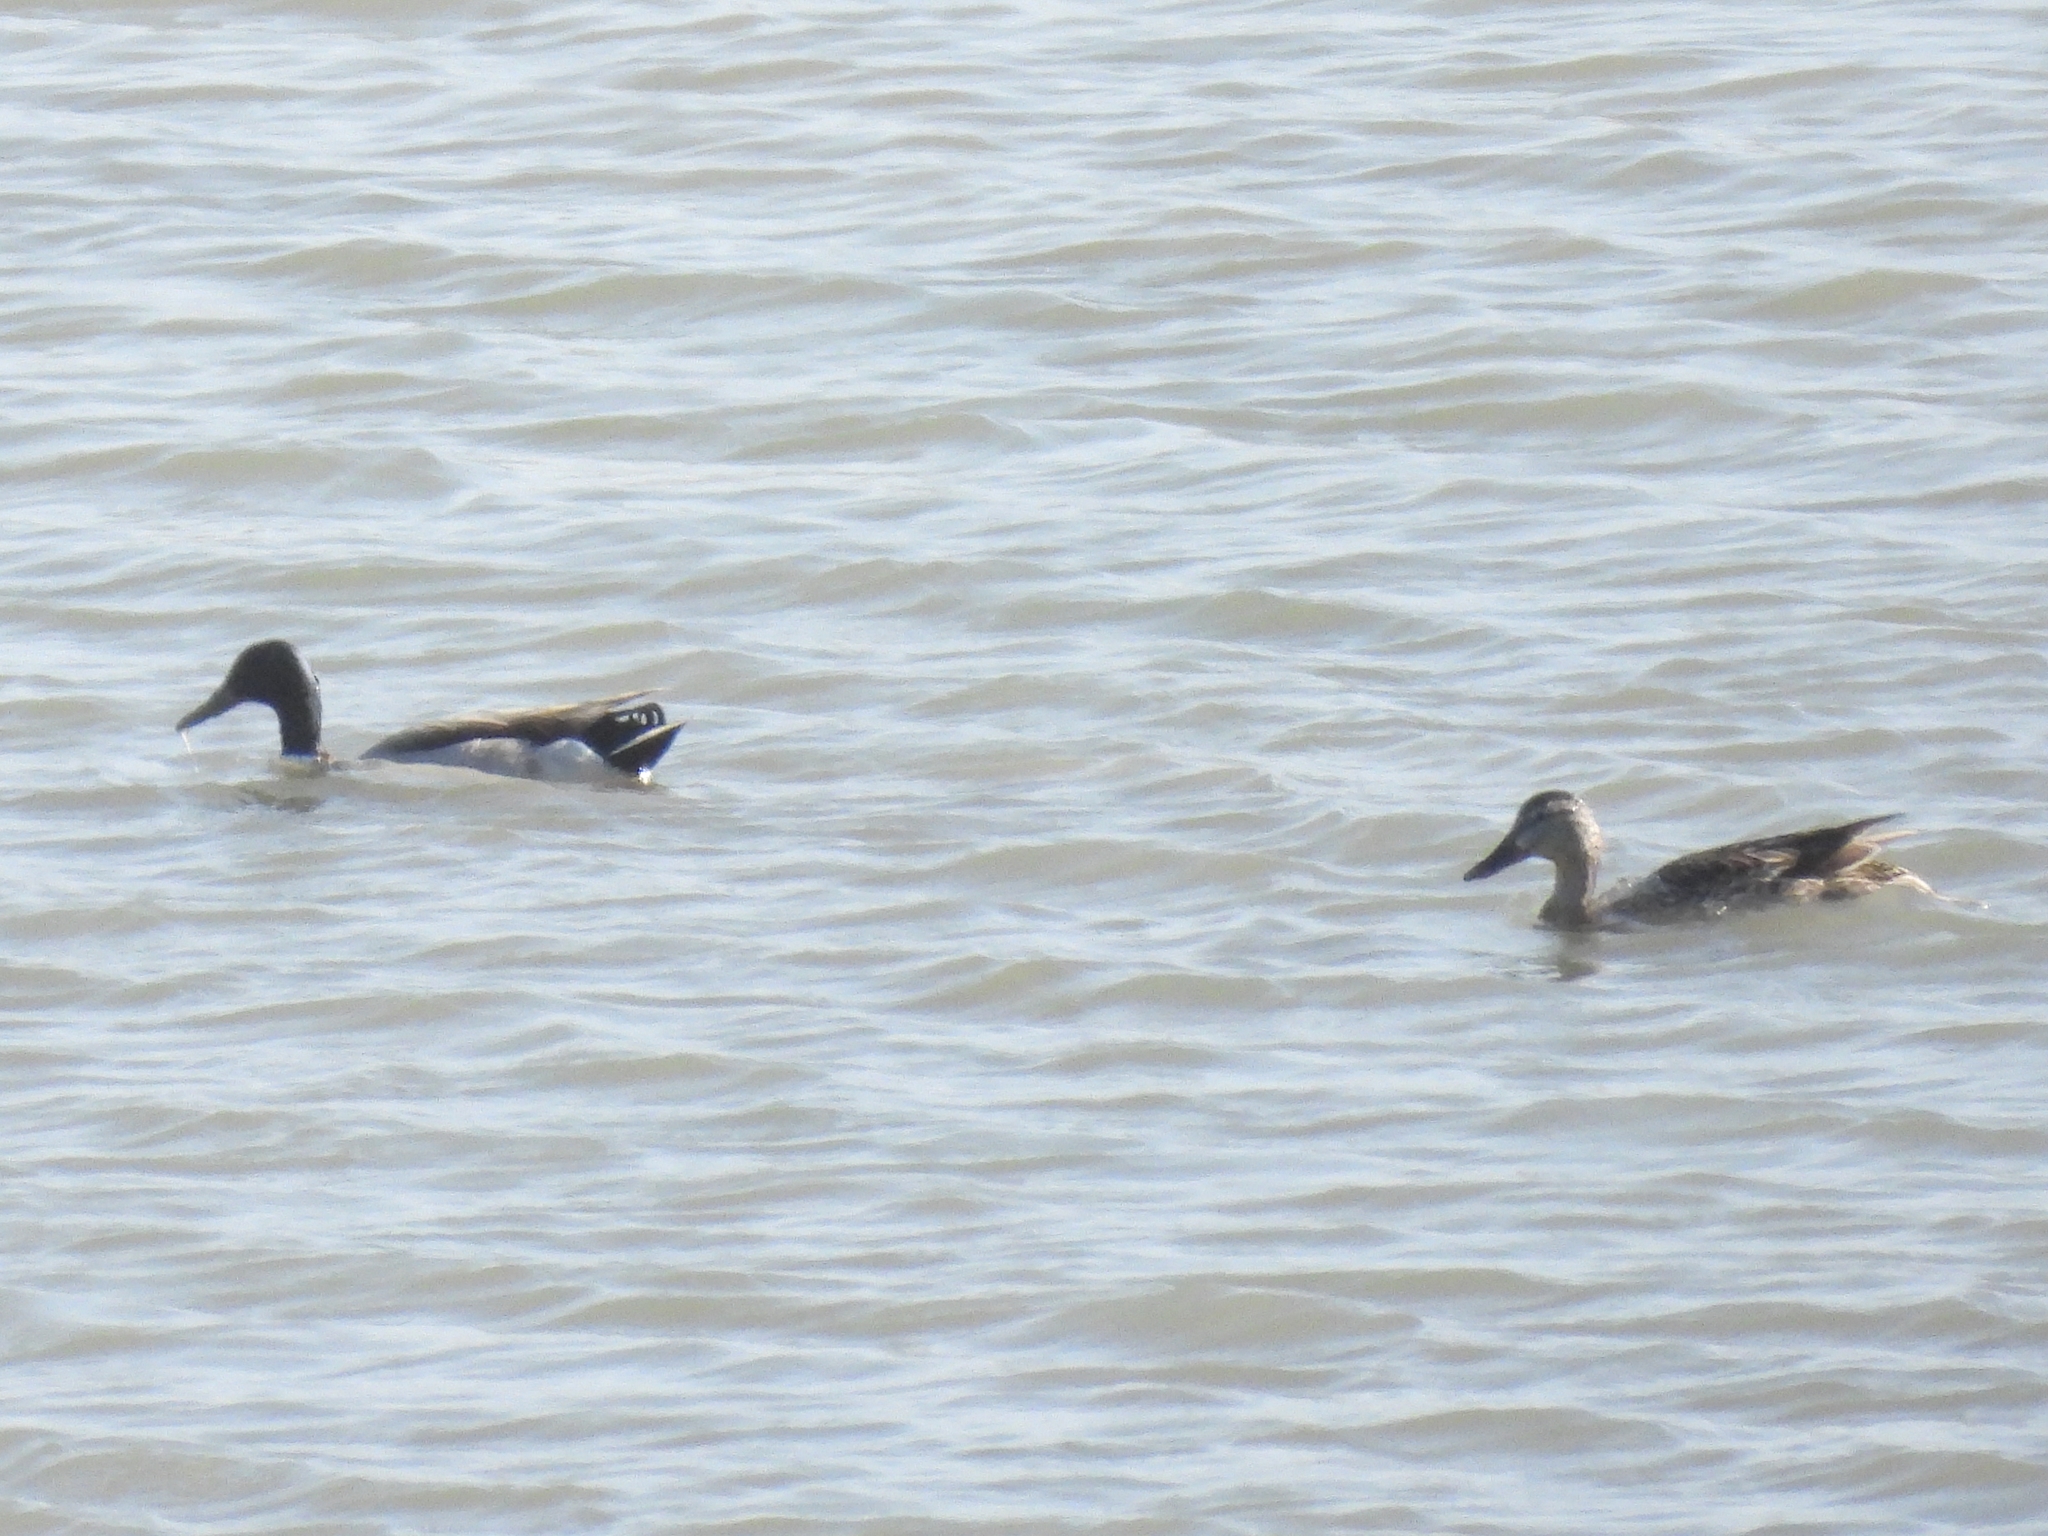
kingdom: Animalia
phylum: Chordata
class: Aves
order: Anseriformes
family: Anatidae
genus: Anas
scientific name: Anas platyrhynchos
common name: Mallard
